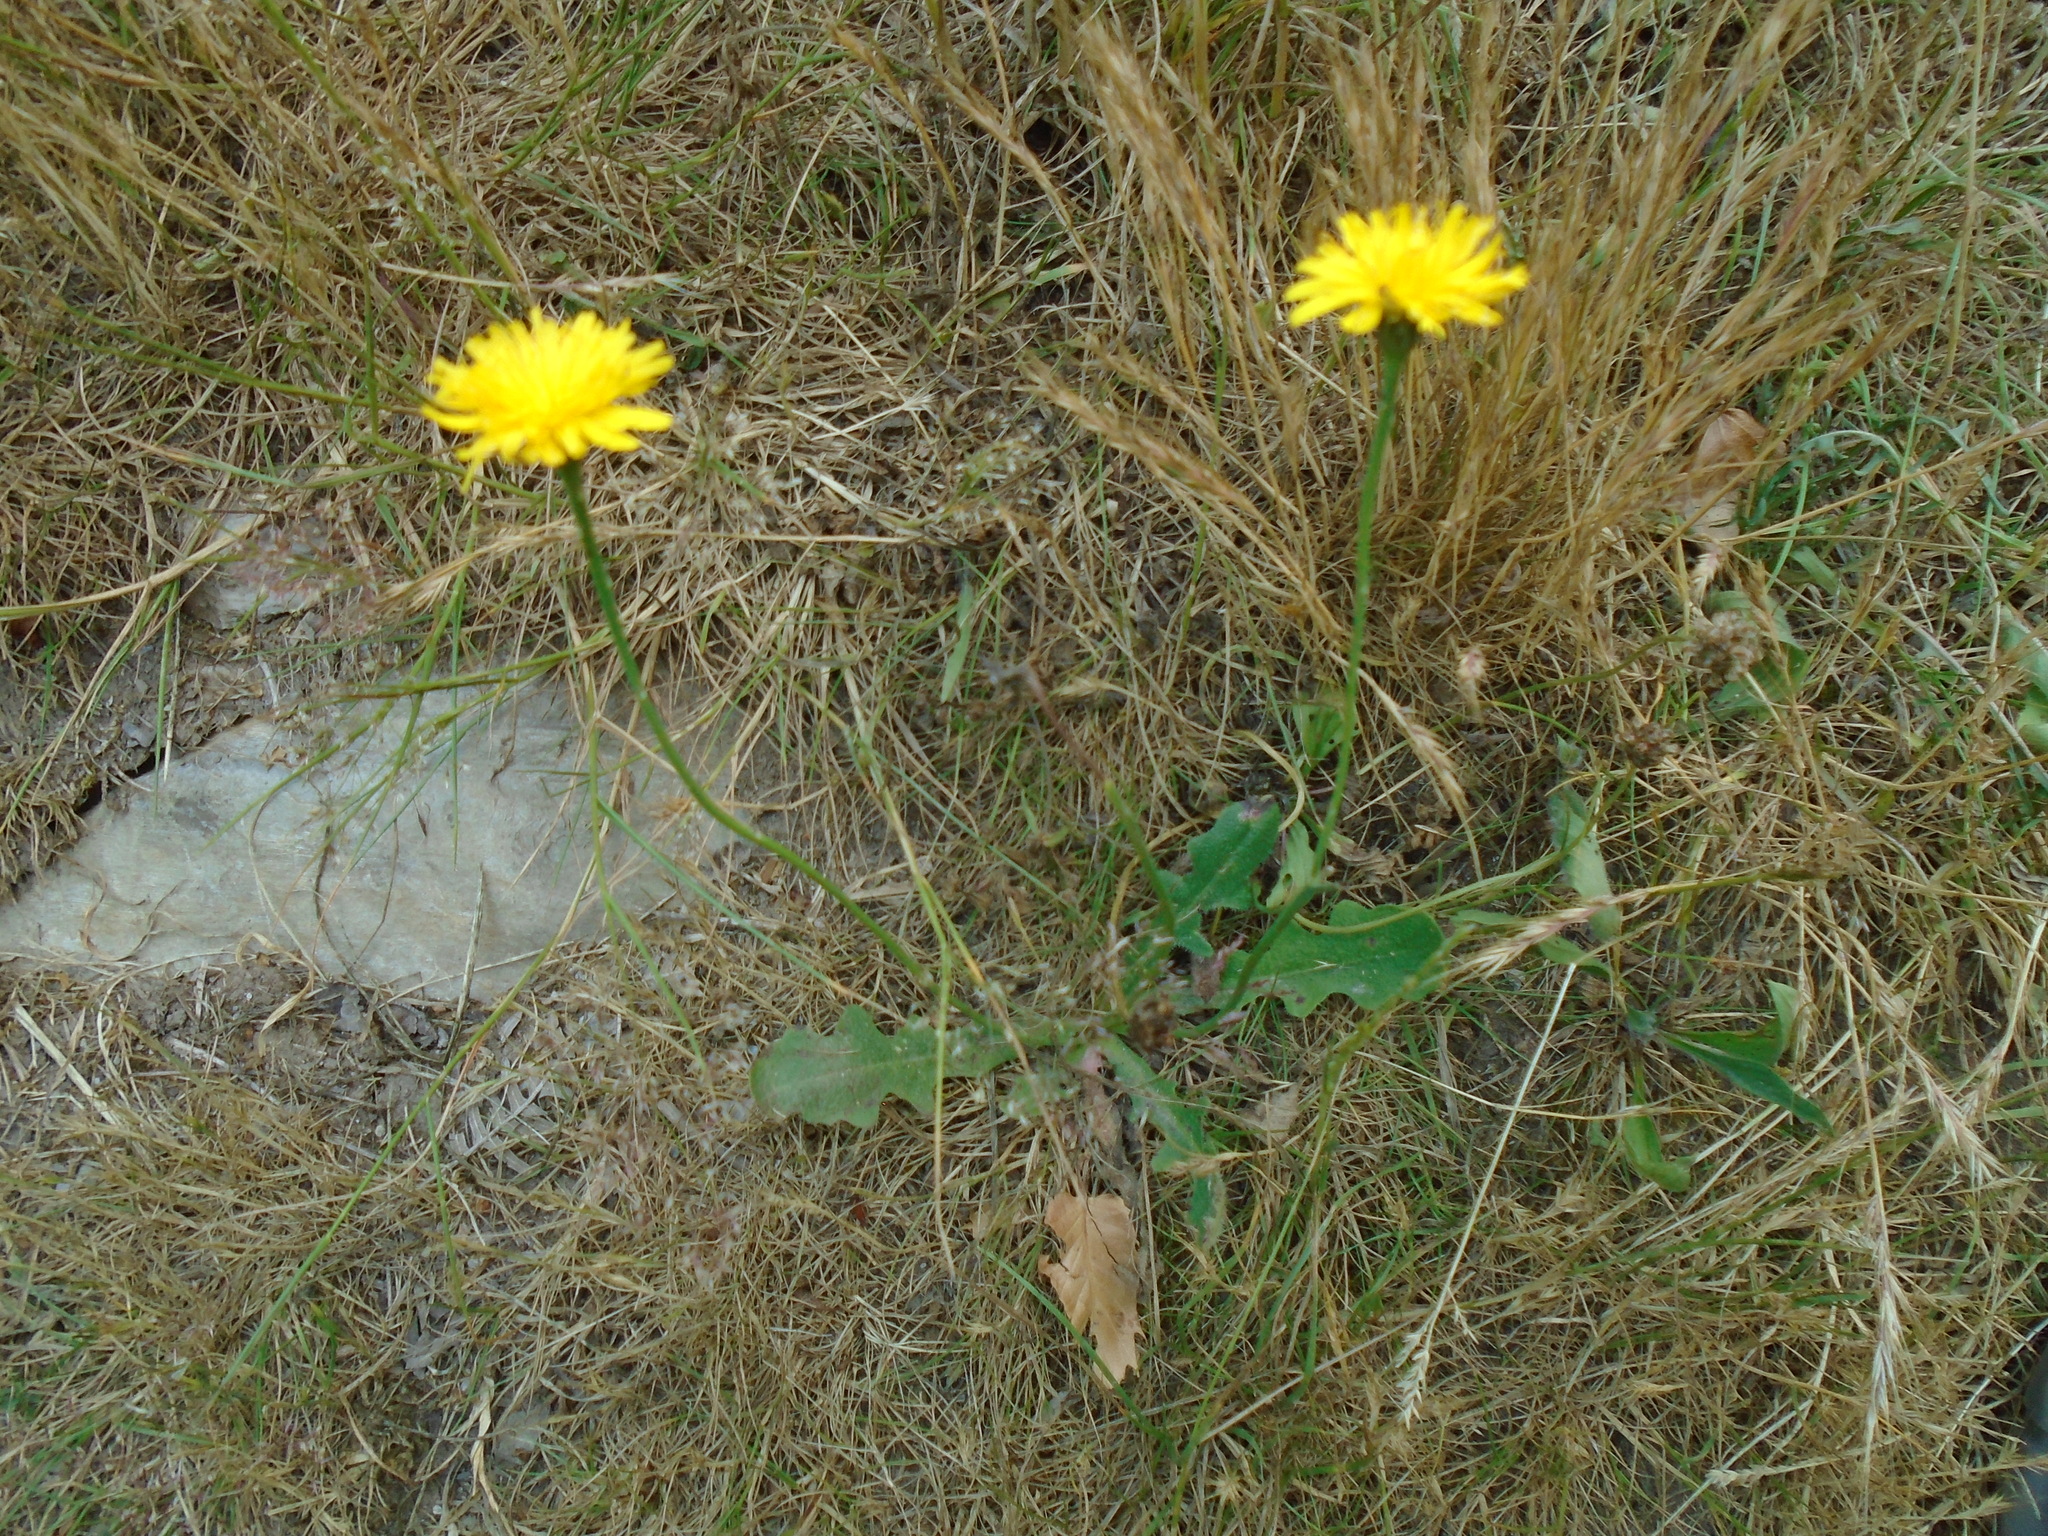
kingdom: Plantae
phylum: Tracheophyta
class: Magnoliopsida
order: Asterales
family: Asteraceae
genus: Hypochaeris
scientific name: Hypochaeris radicata
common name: Flatweed
